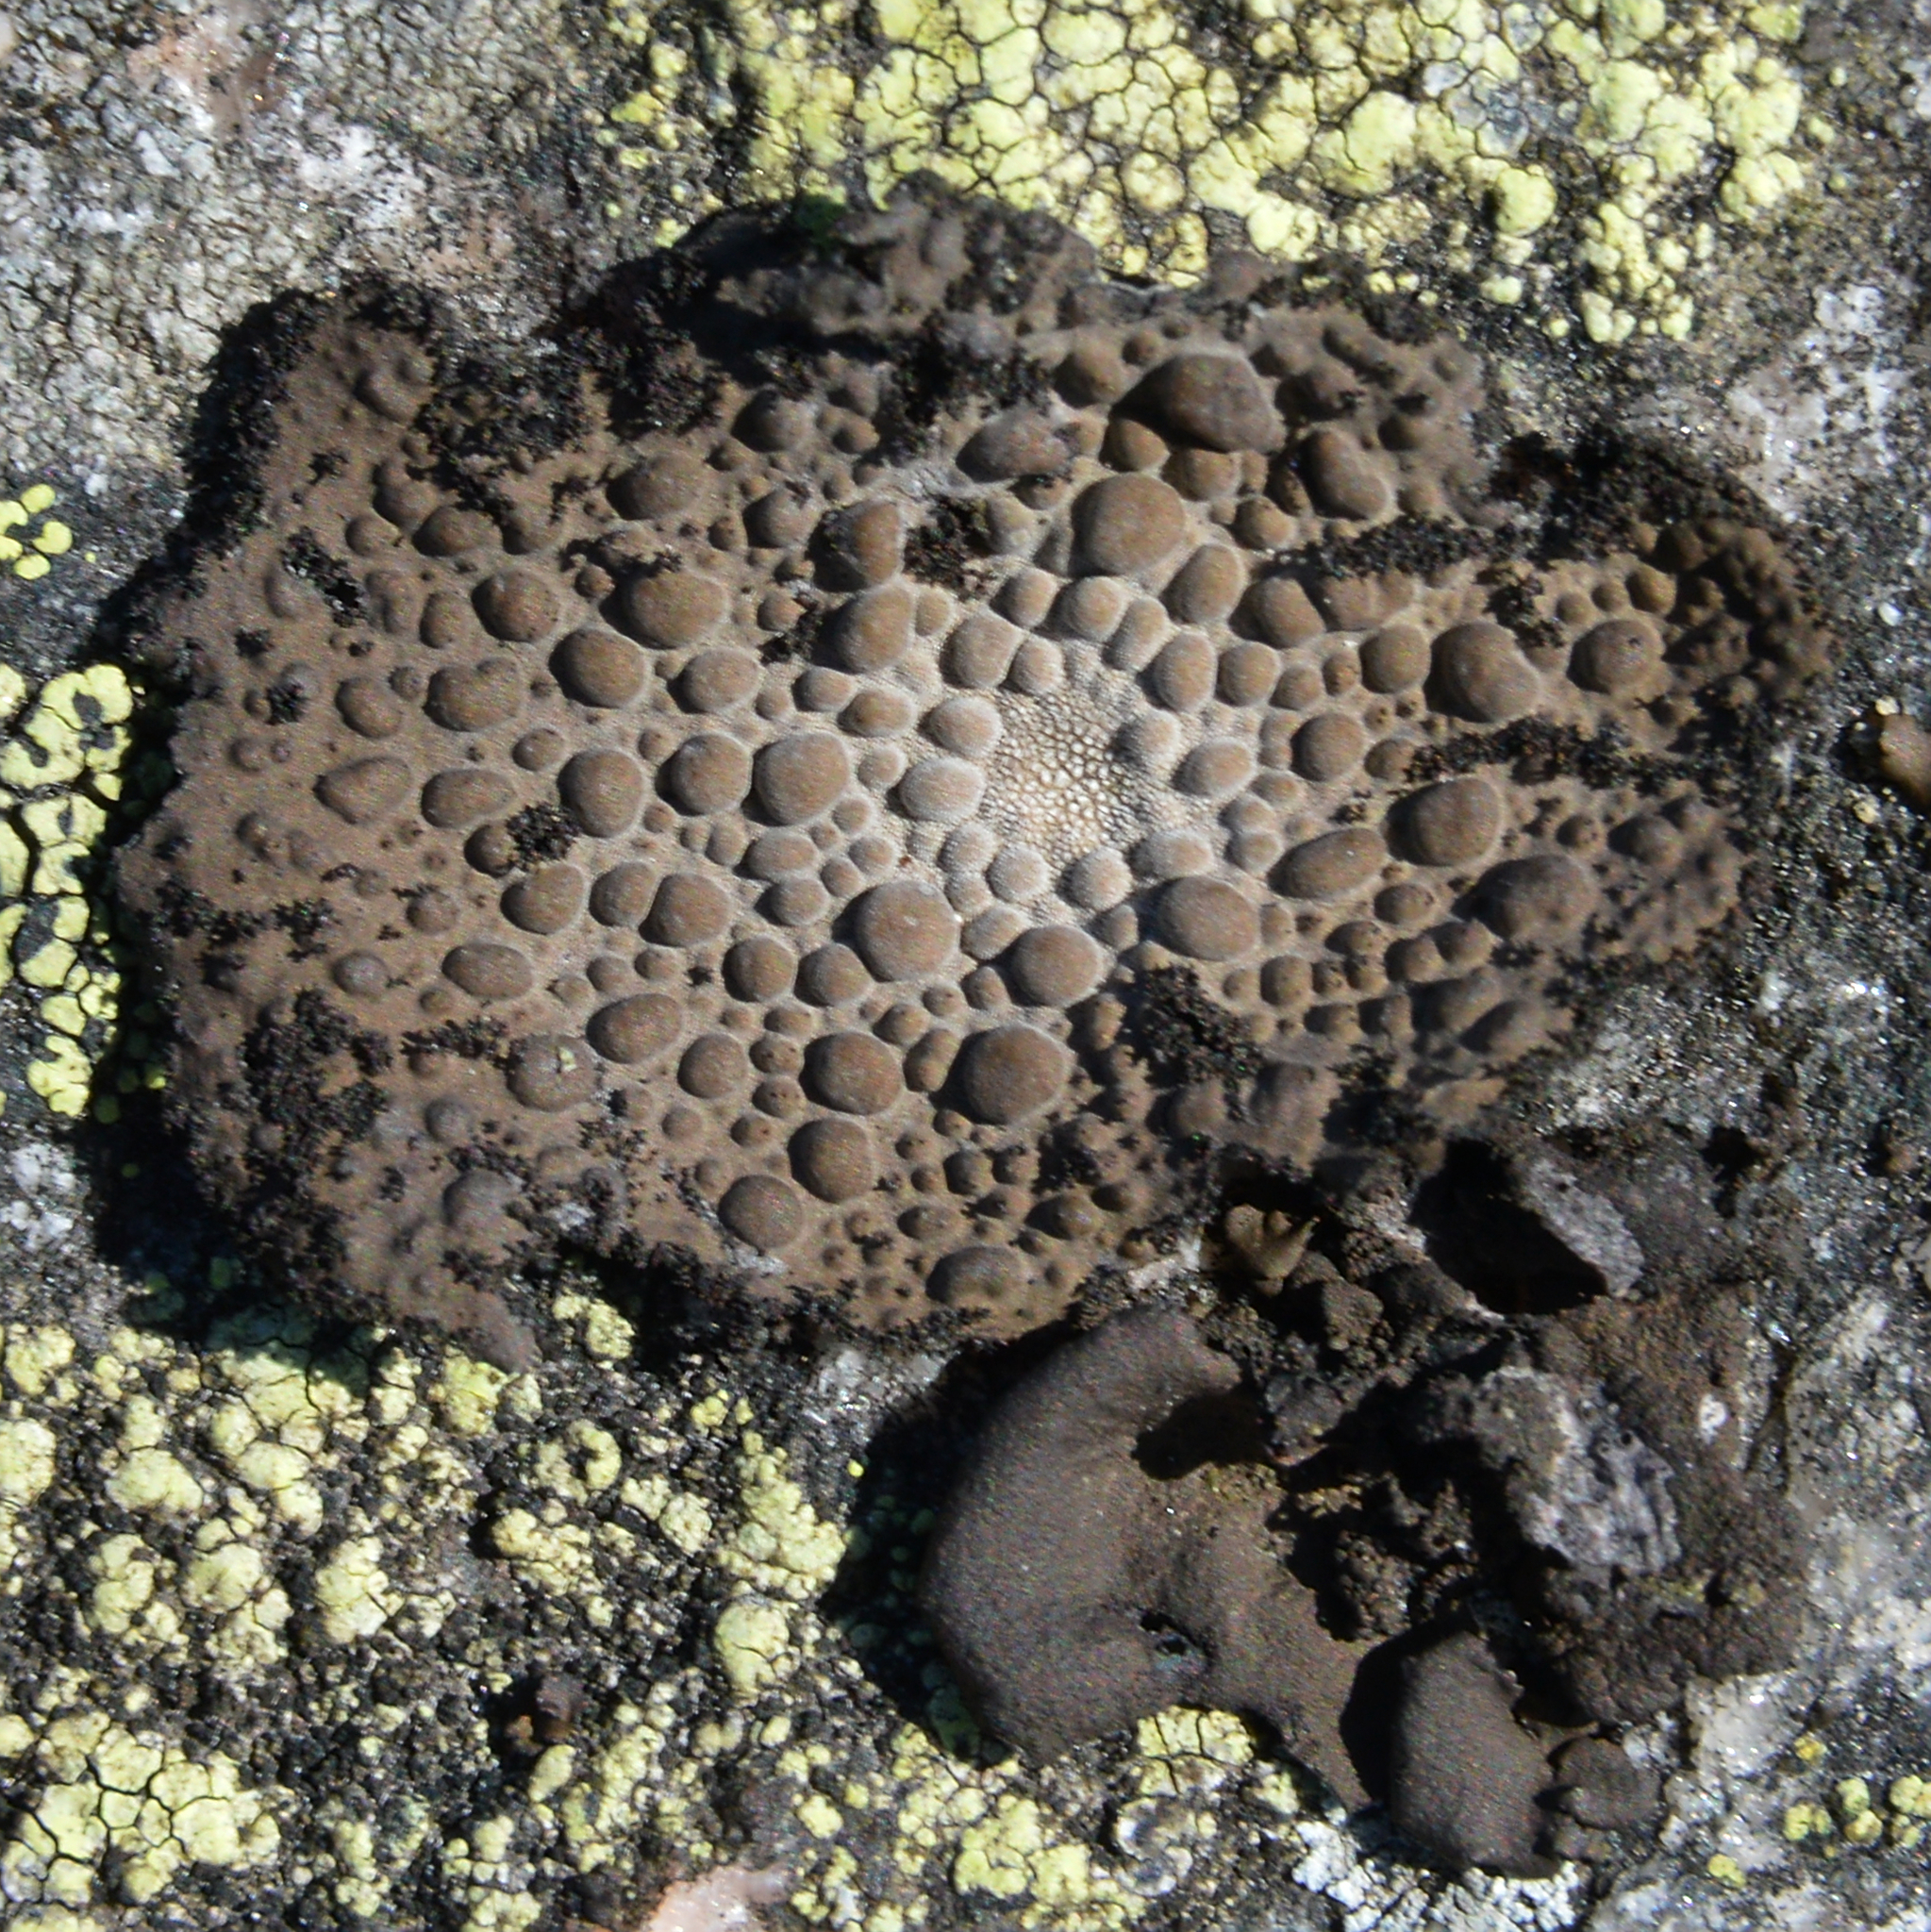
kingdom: Fungi
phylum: Ascomycota
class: Lecanoromycetes
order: Umbilicariales
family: Umbilicariaceae
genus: Lasallia
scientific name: Lasallia pustulata
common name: Blistered toadskin lichen
